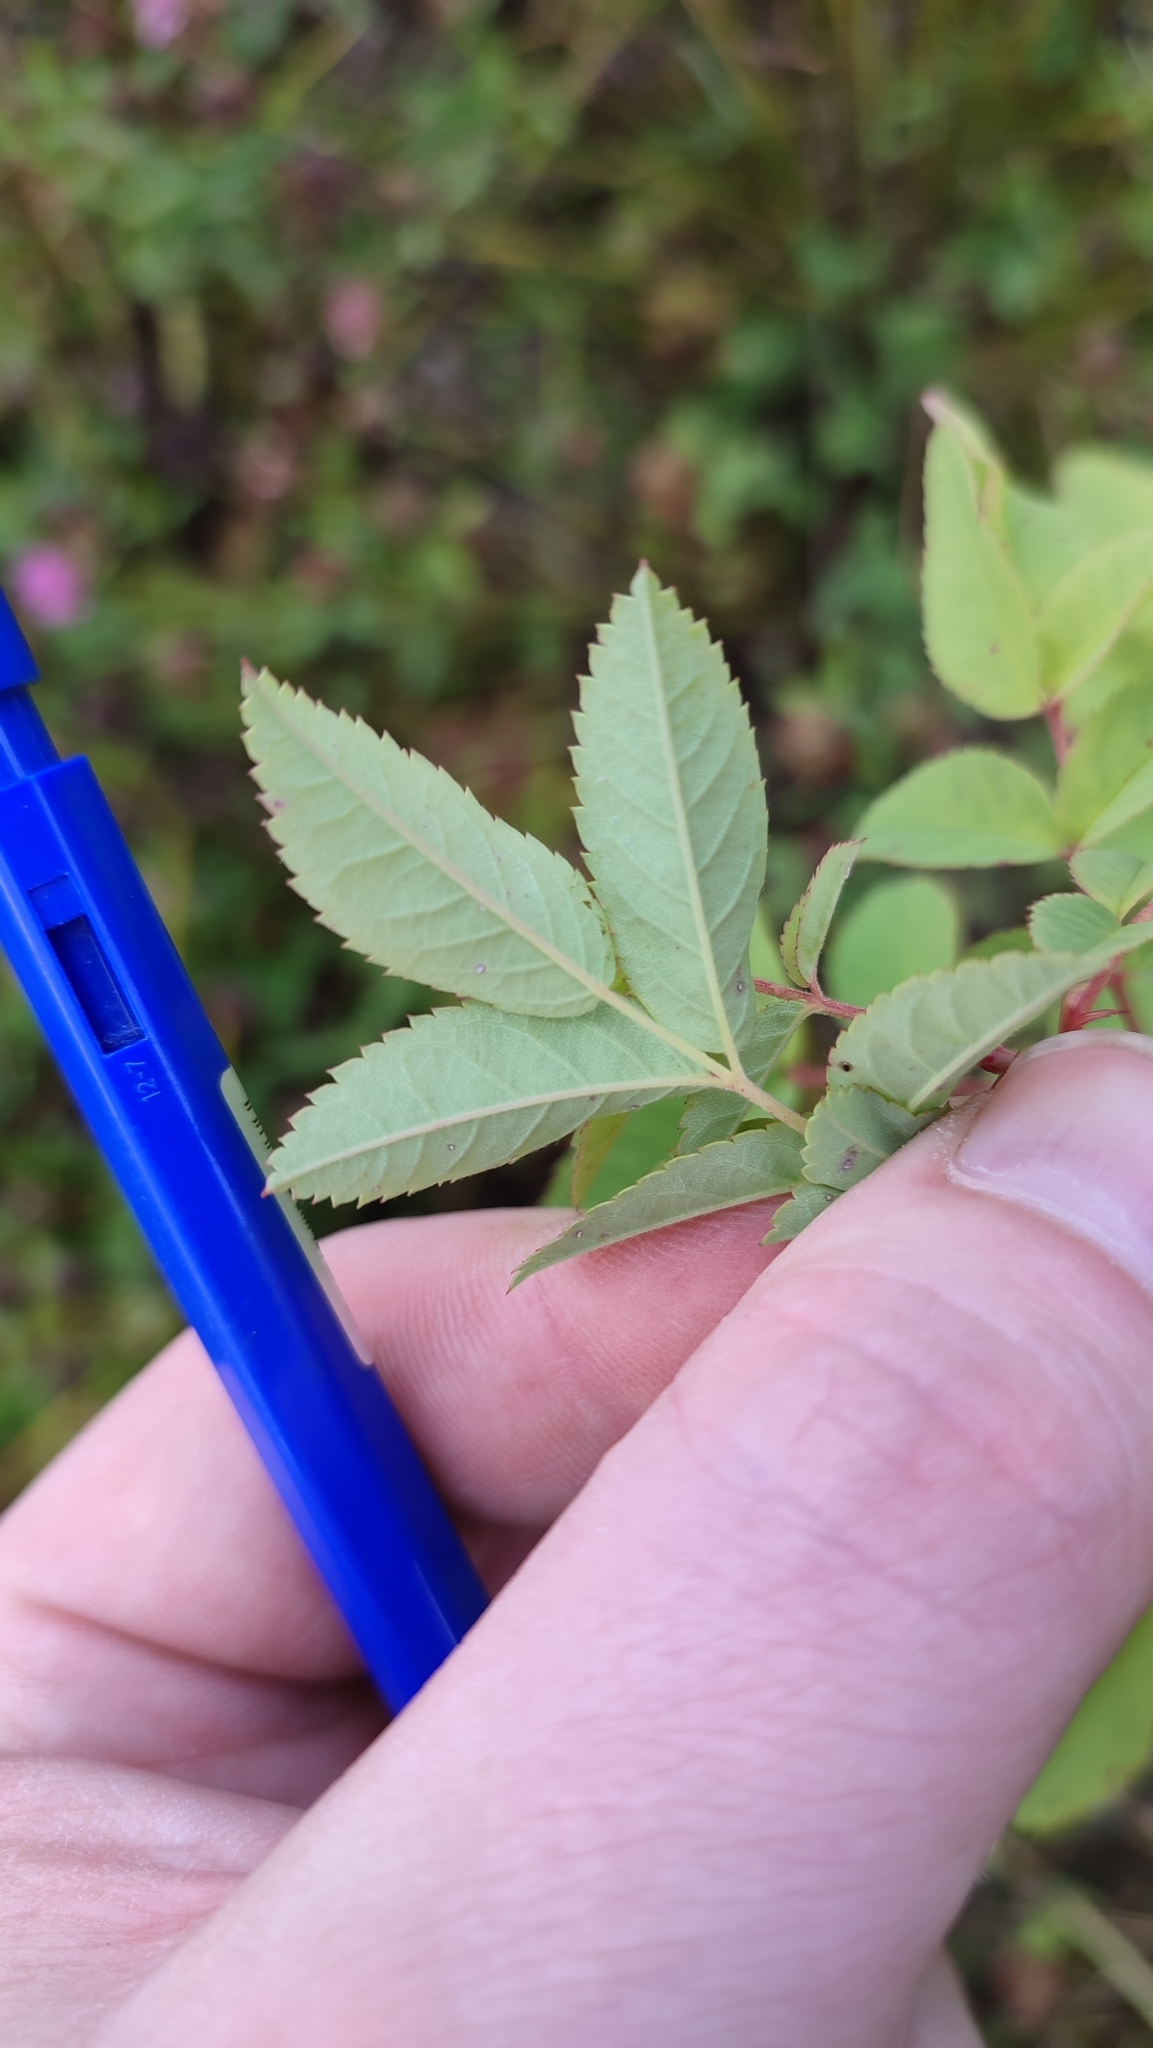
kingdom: Plantae
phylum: Tracheophyta
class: Magnoliopsida
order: Rosales
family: Rosaceae
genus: Rosa
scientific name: Rosa acicularis
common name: Prickly rose
